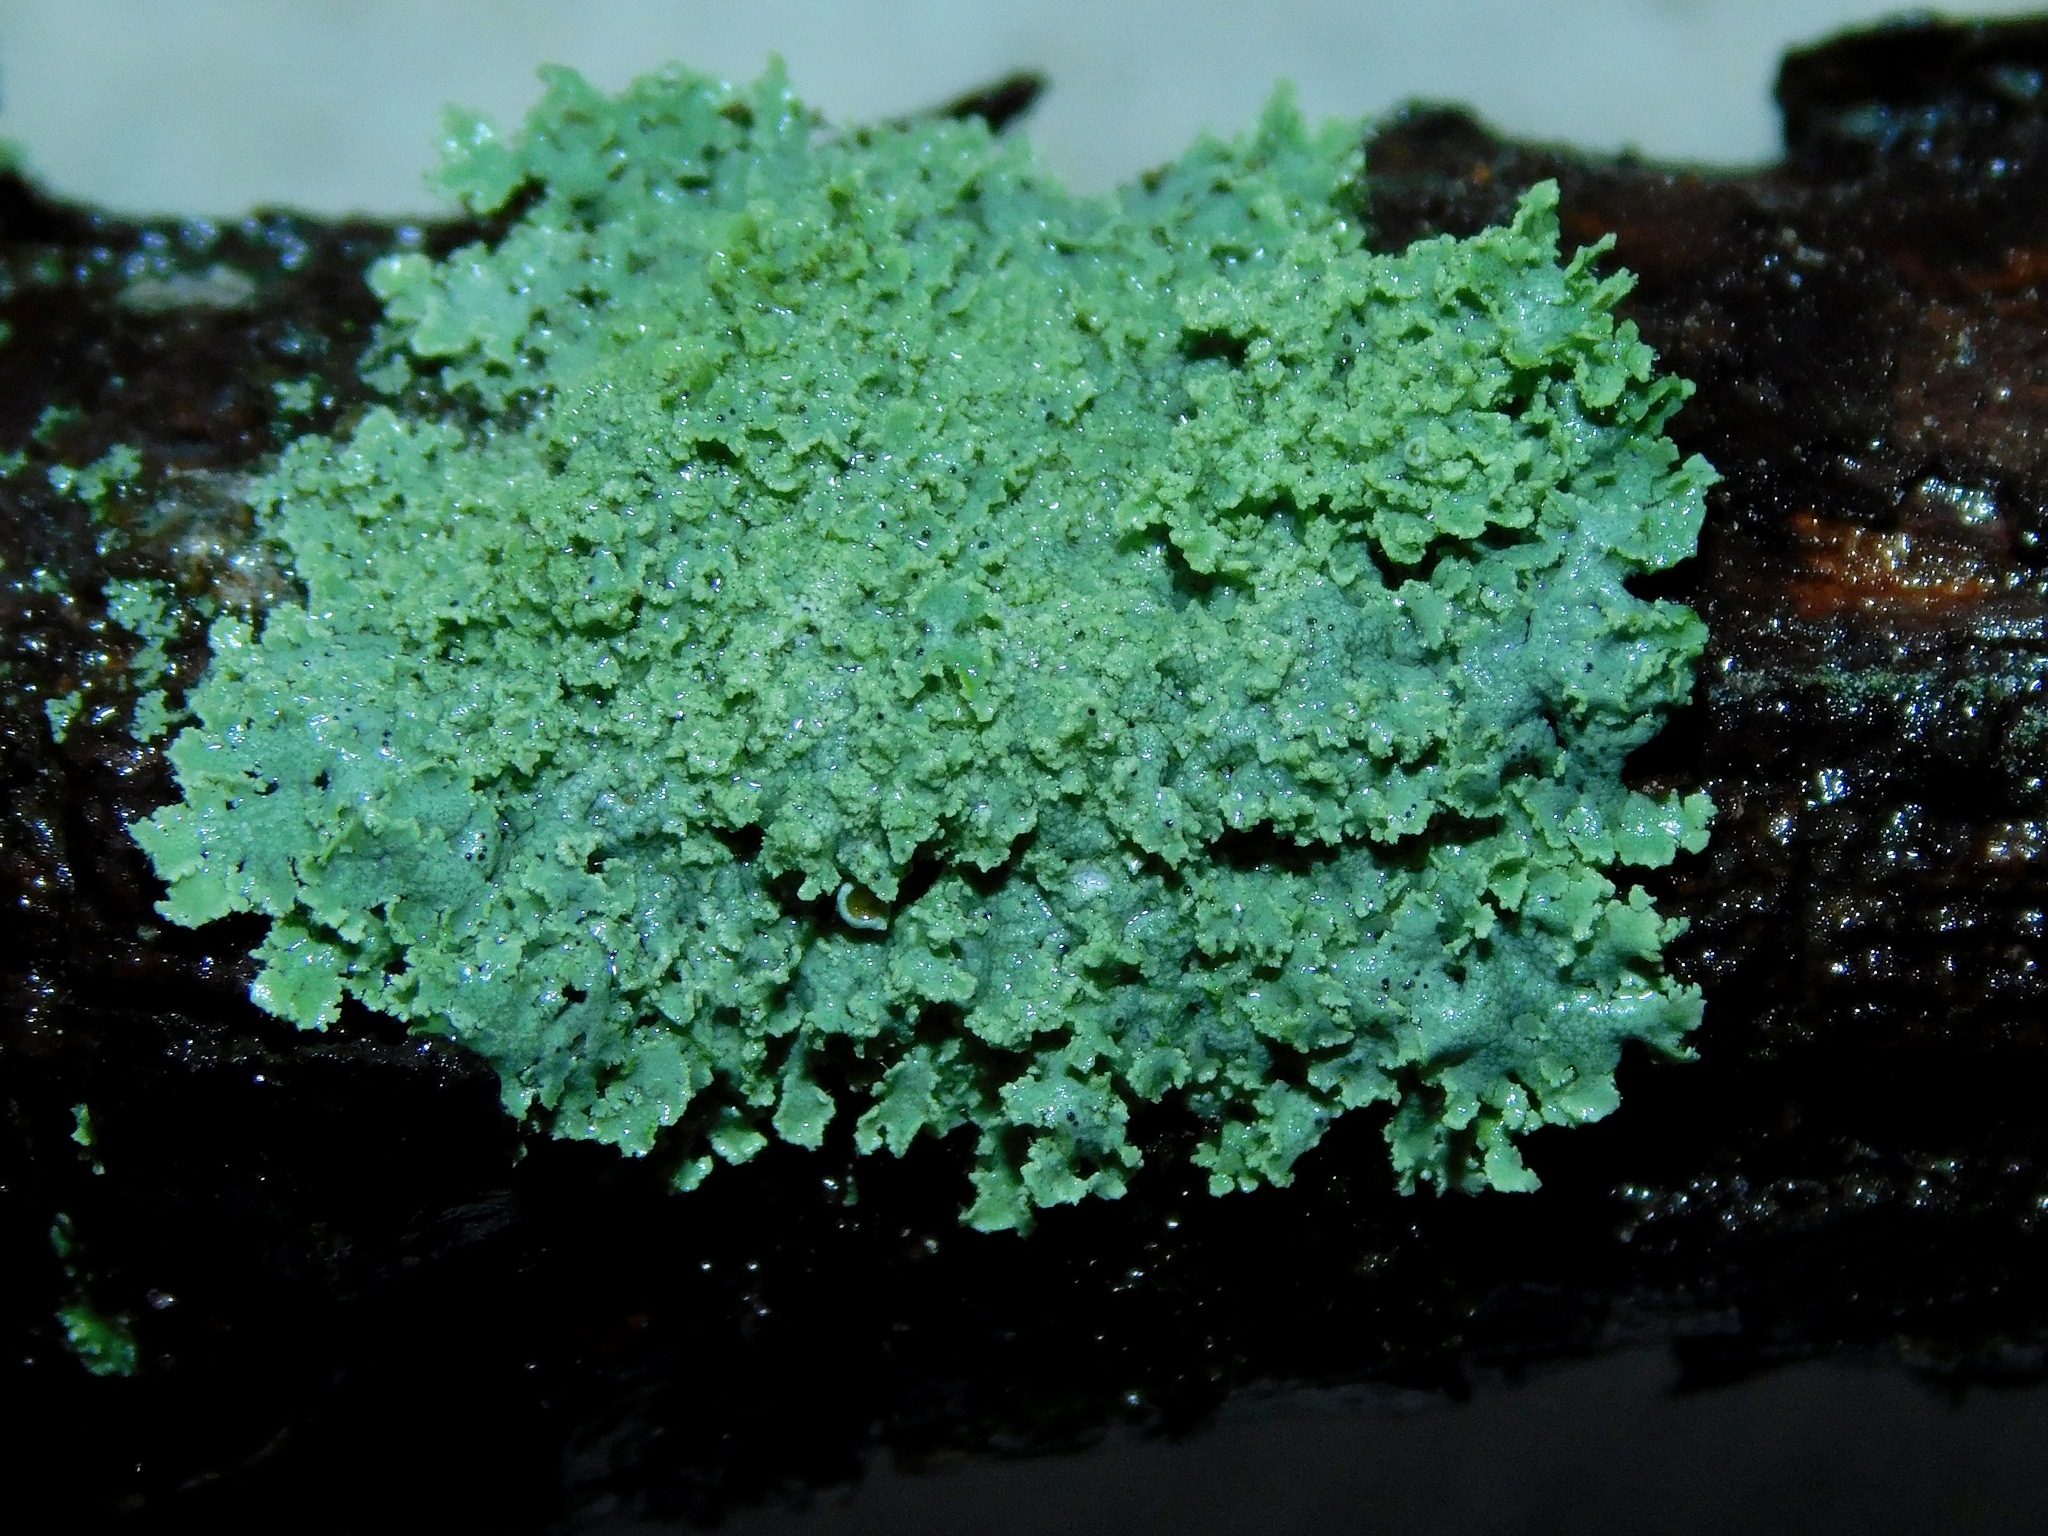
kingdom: Fungi
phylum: Ascomycota
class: Lecanoromycetes
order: Caliciales
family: Physciaceae
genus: Physcia
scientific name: Physcia millegrana
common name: Rosette lichen
